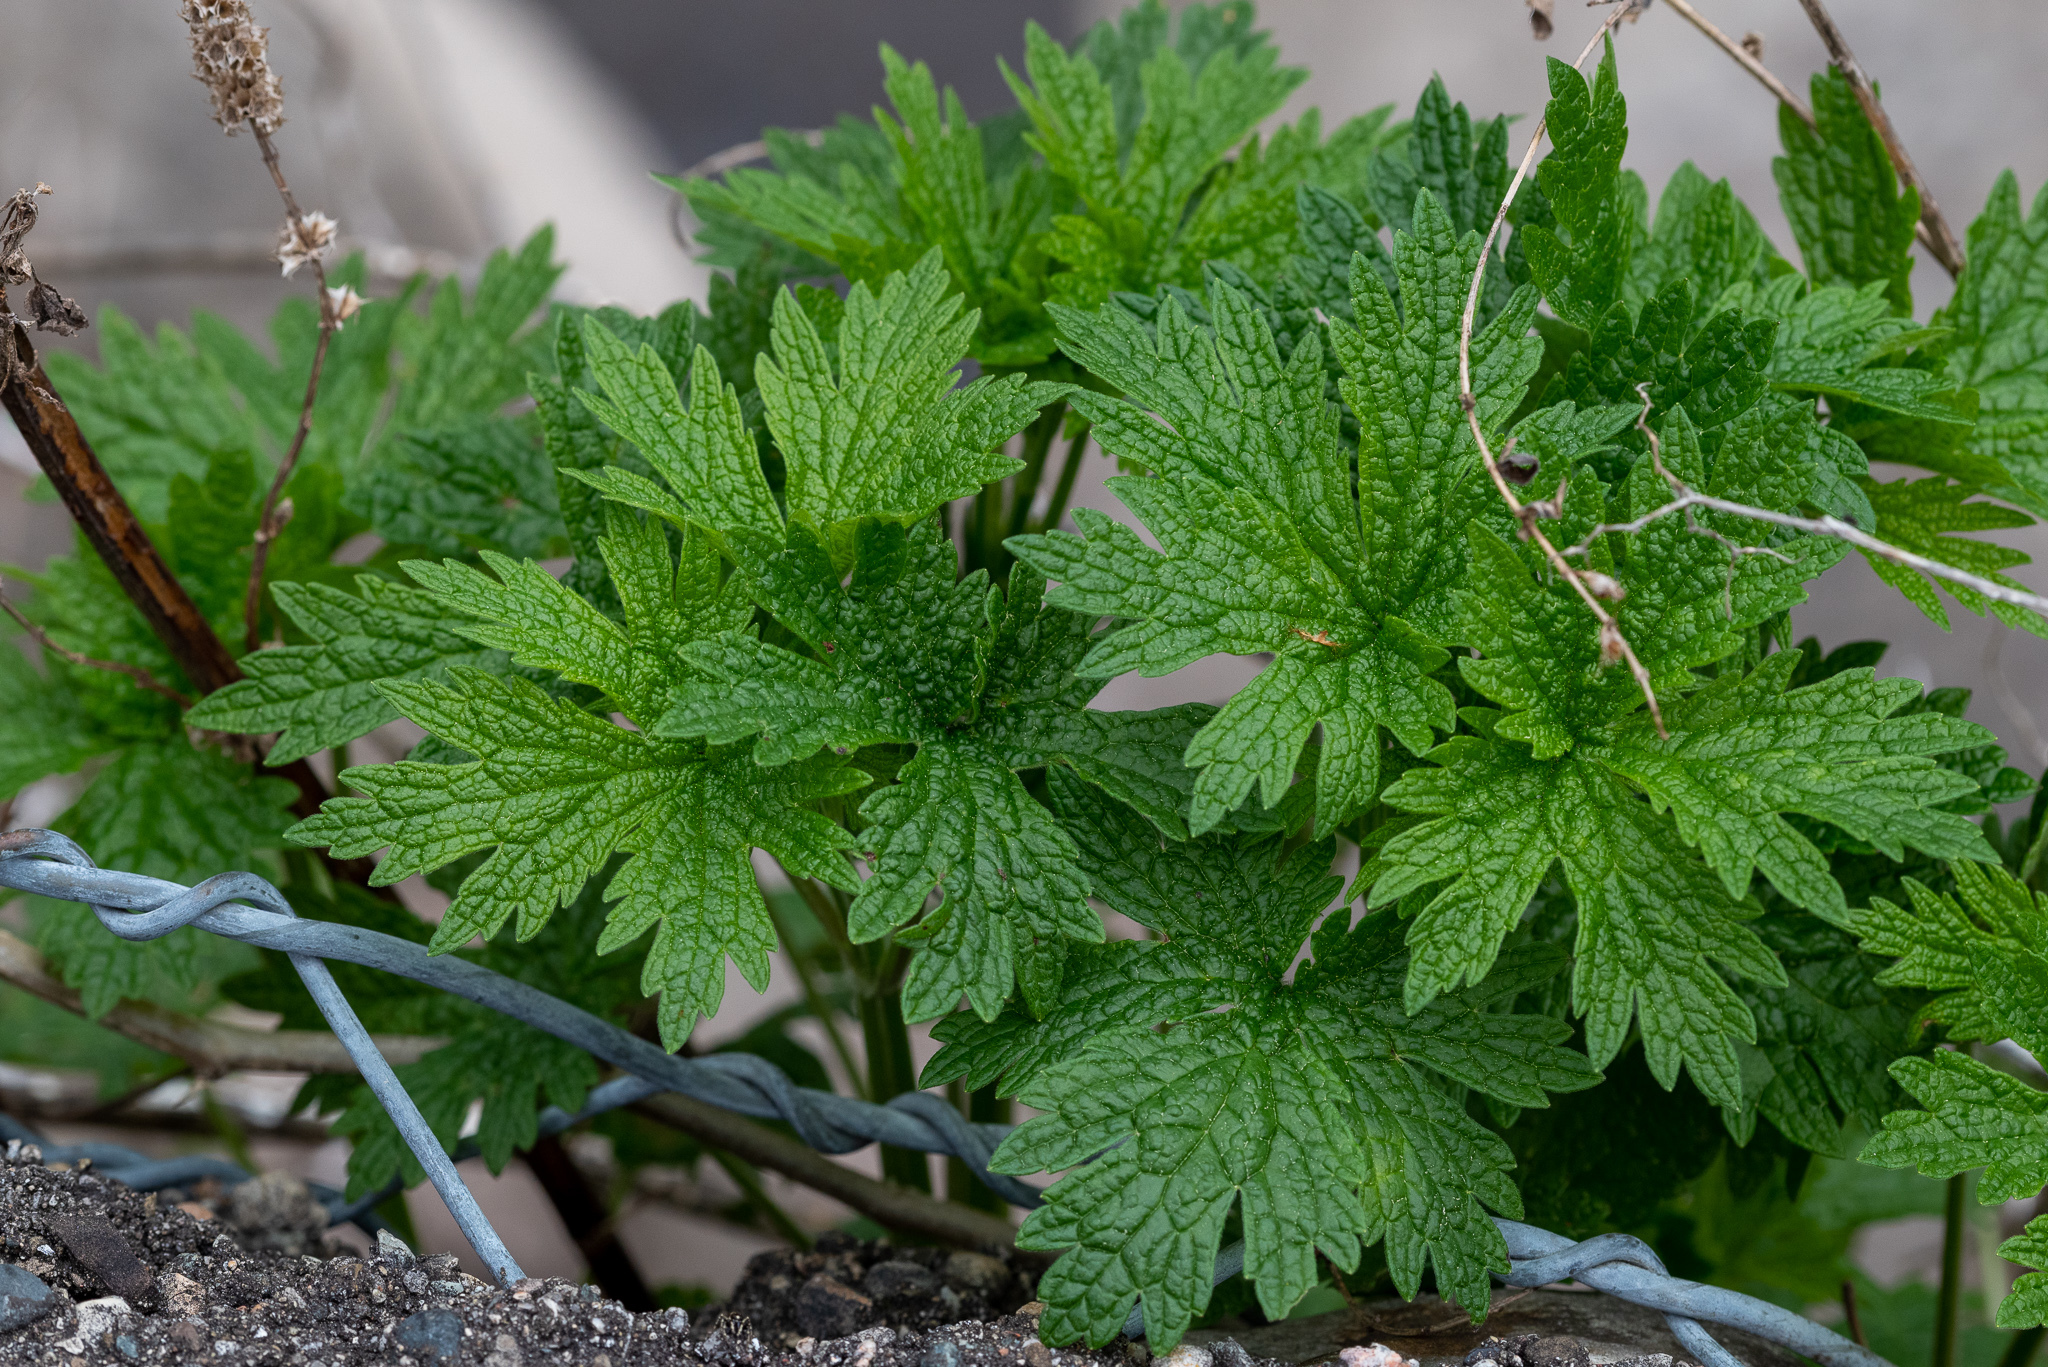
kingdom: Plantae
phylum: Tracheophyta
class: Magnoliopsida
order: Lamiales
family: Lamiaceae
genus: Leonurus
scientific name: Leonurus cardiaca
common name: Motherwort
